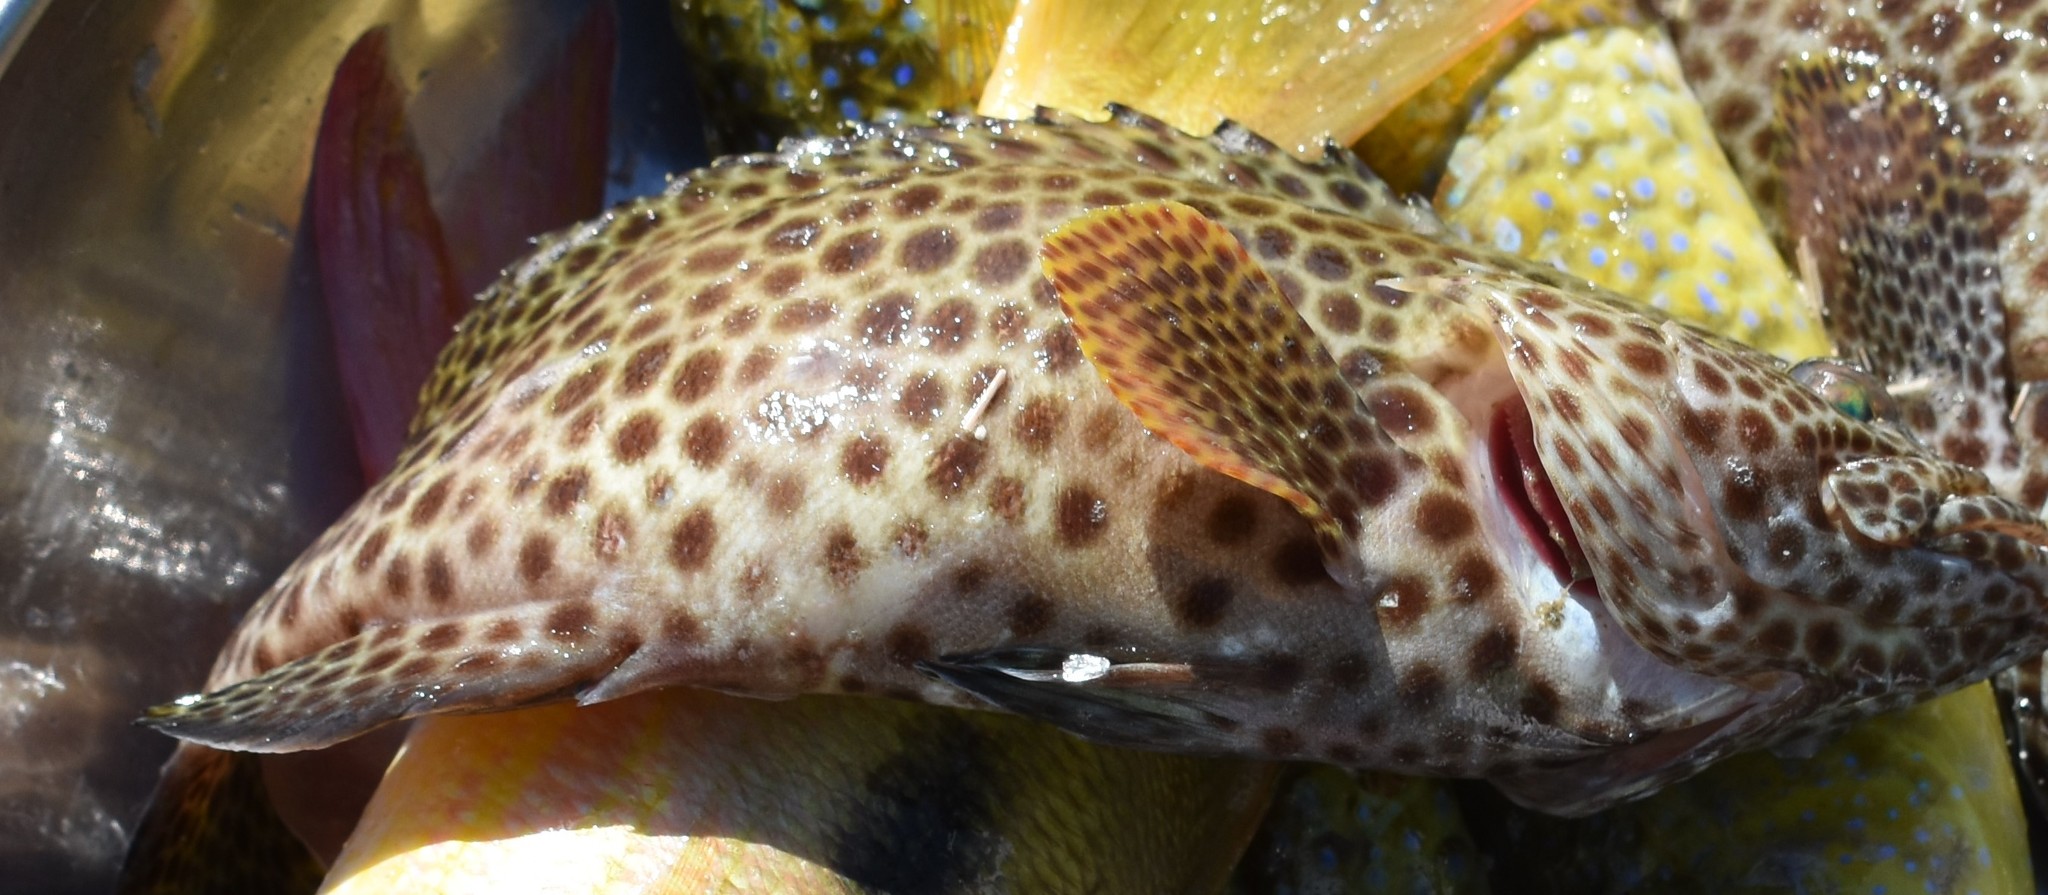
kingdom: Animalia
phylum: Chordata
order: Perciformes
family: Serranidae
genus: Epinephelus
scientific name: Epinephelus spilotoceps
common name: Foursaddle grouper
